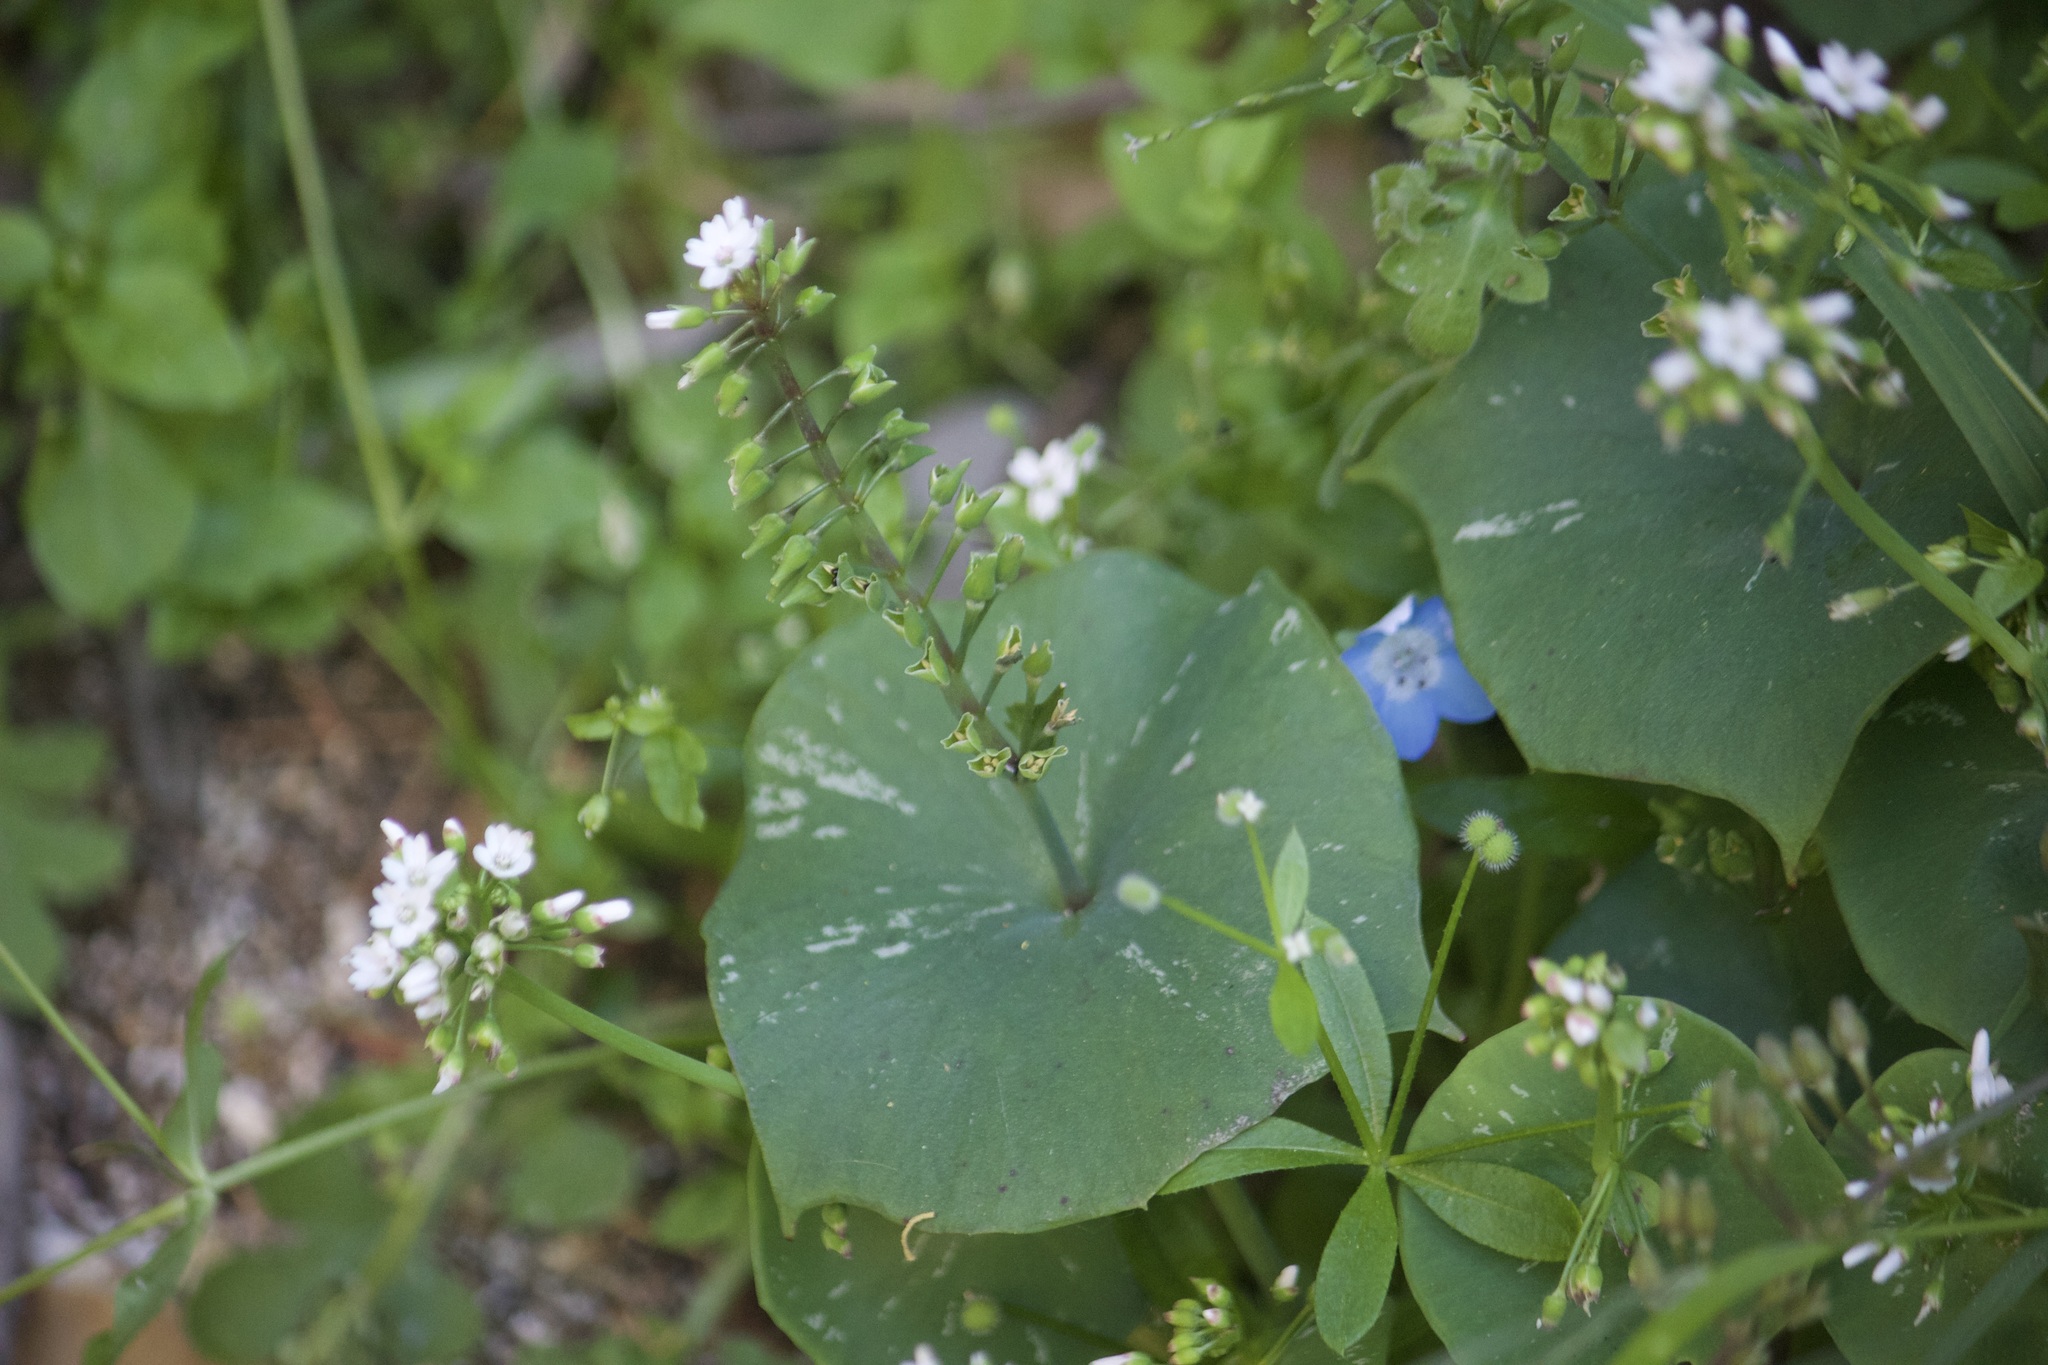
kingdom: Plantae
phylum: Tracheophyta
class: Magnoliopsida
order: Caryophyllales
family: Montiaceae
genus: Claytonia
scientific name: Claytonia perfoliata
